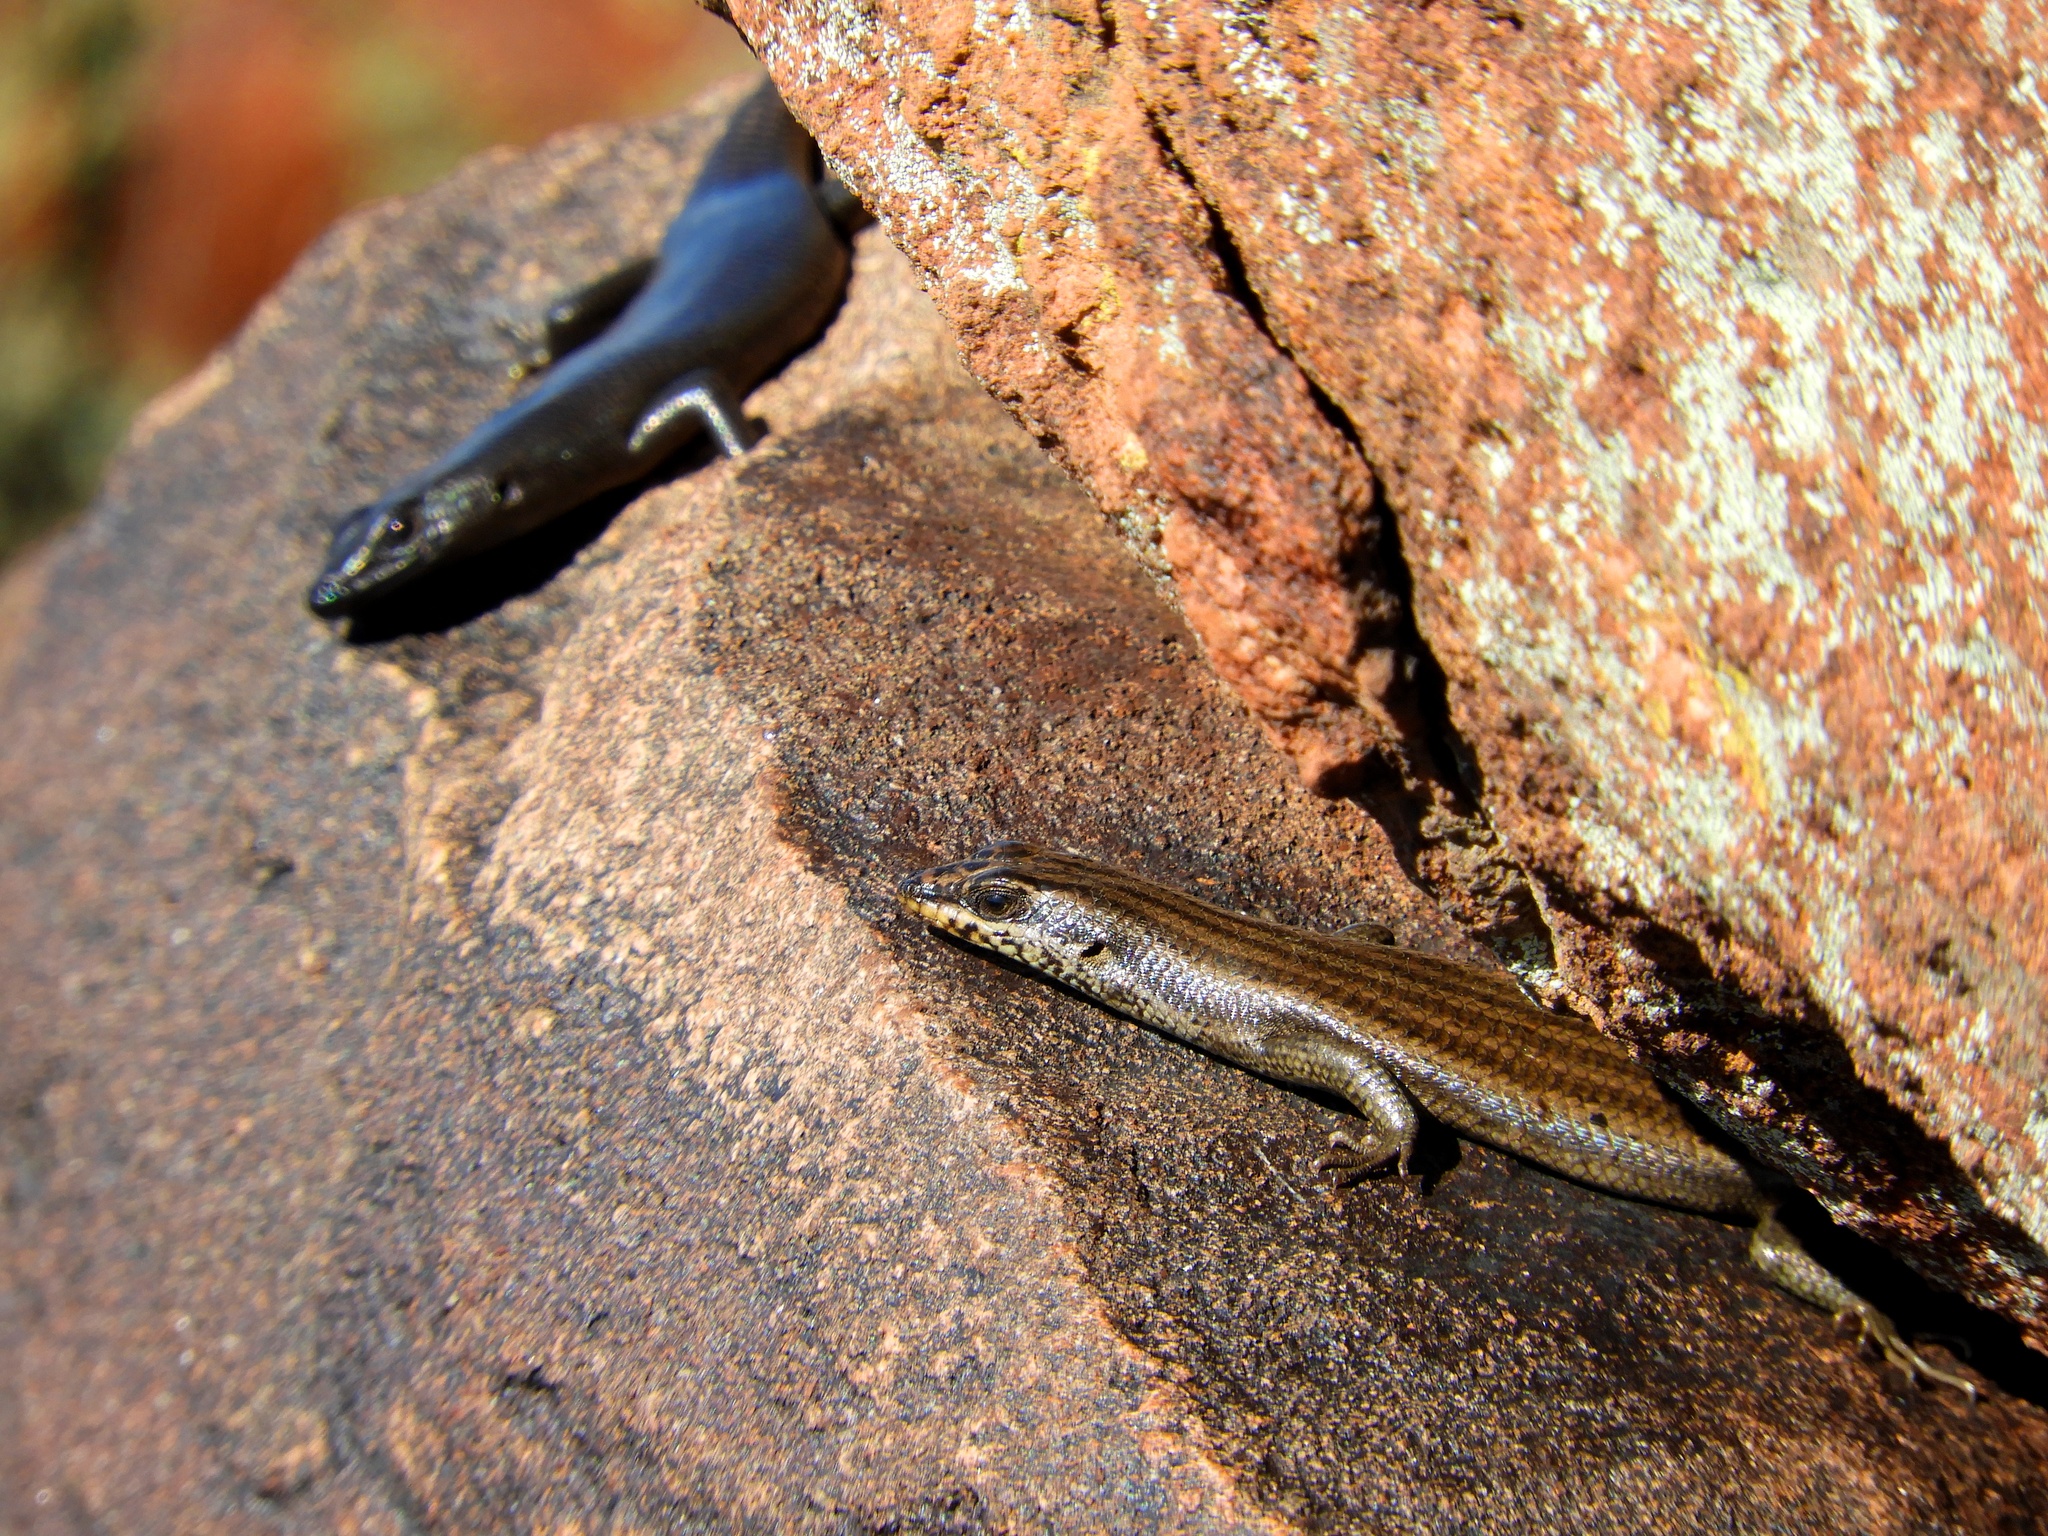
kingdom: Animalia
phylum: Chordata
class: Squamata
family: Scincidae
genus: Trachylepis
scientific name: Trachylepis sulcata
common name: Western rock skink
